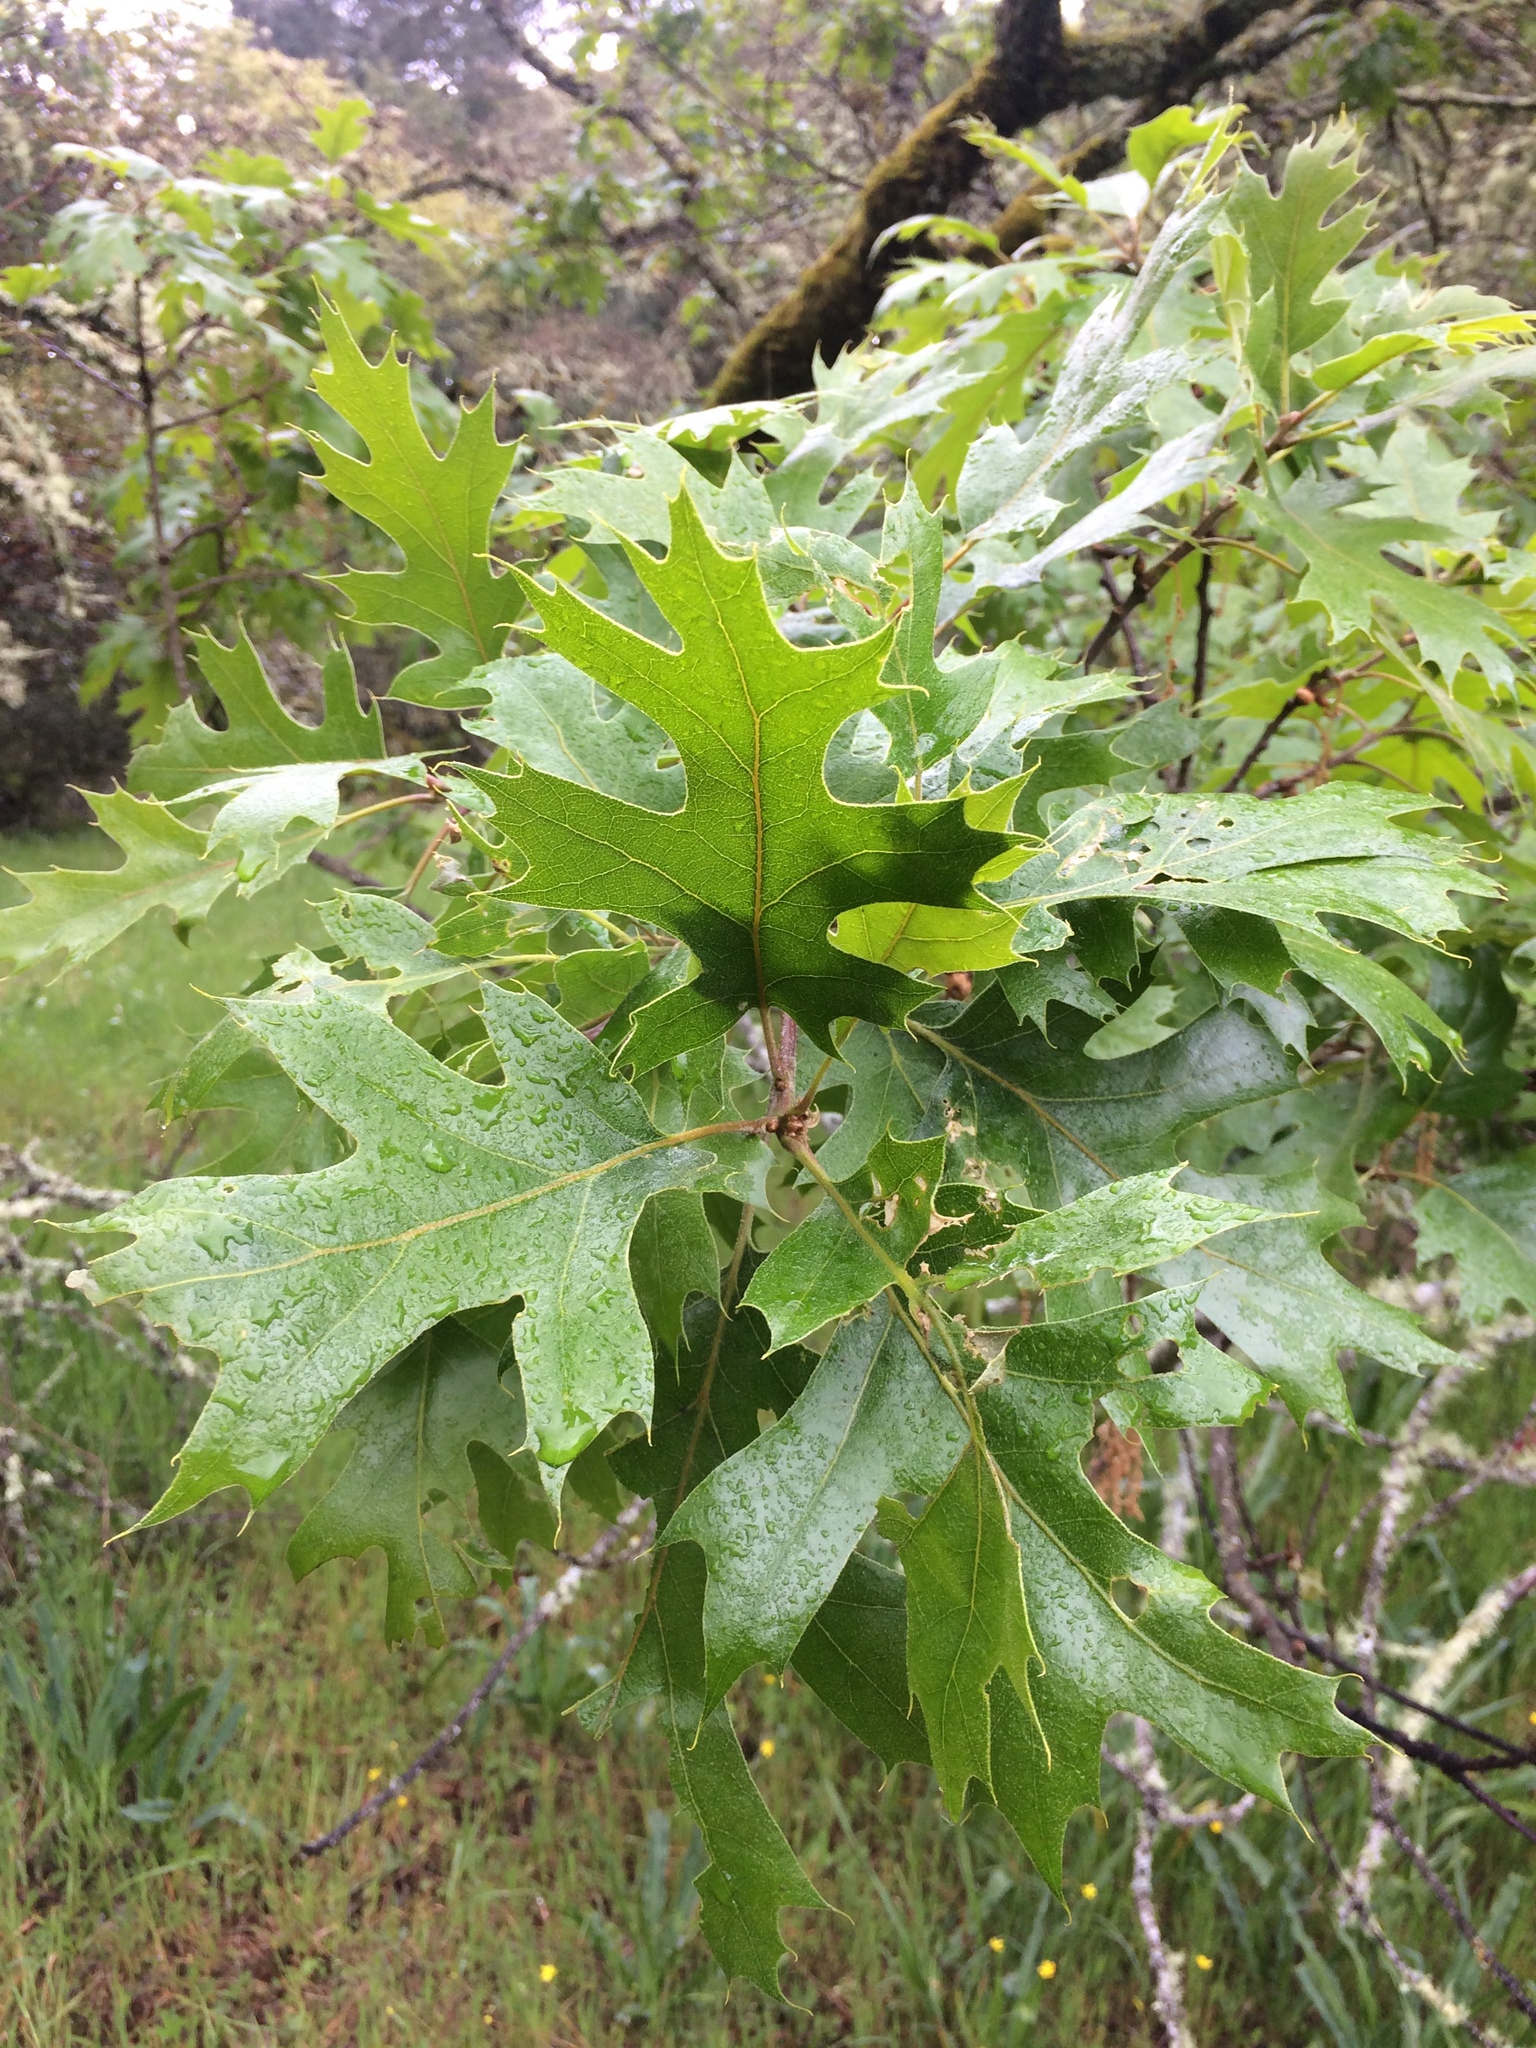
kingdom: Plantae
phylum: Tracheophyta
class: Magnoliopsida
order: Fagales
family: Fagaceae
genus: Quercus
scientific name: Quercus kelloggii
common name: California black oak
